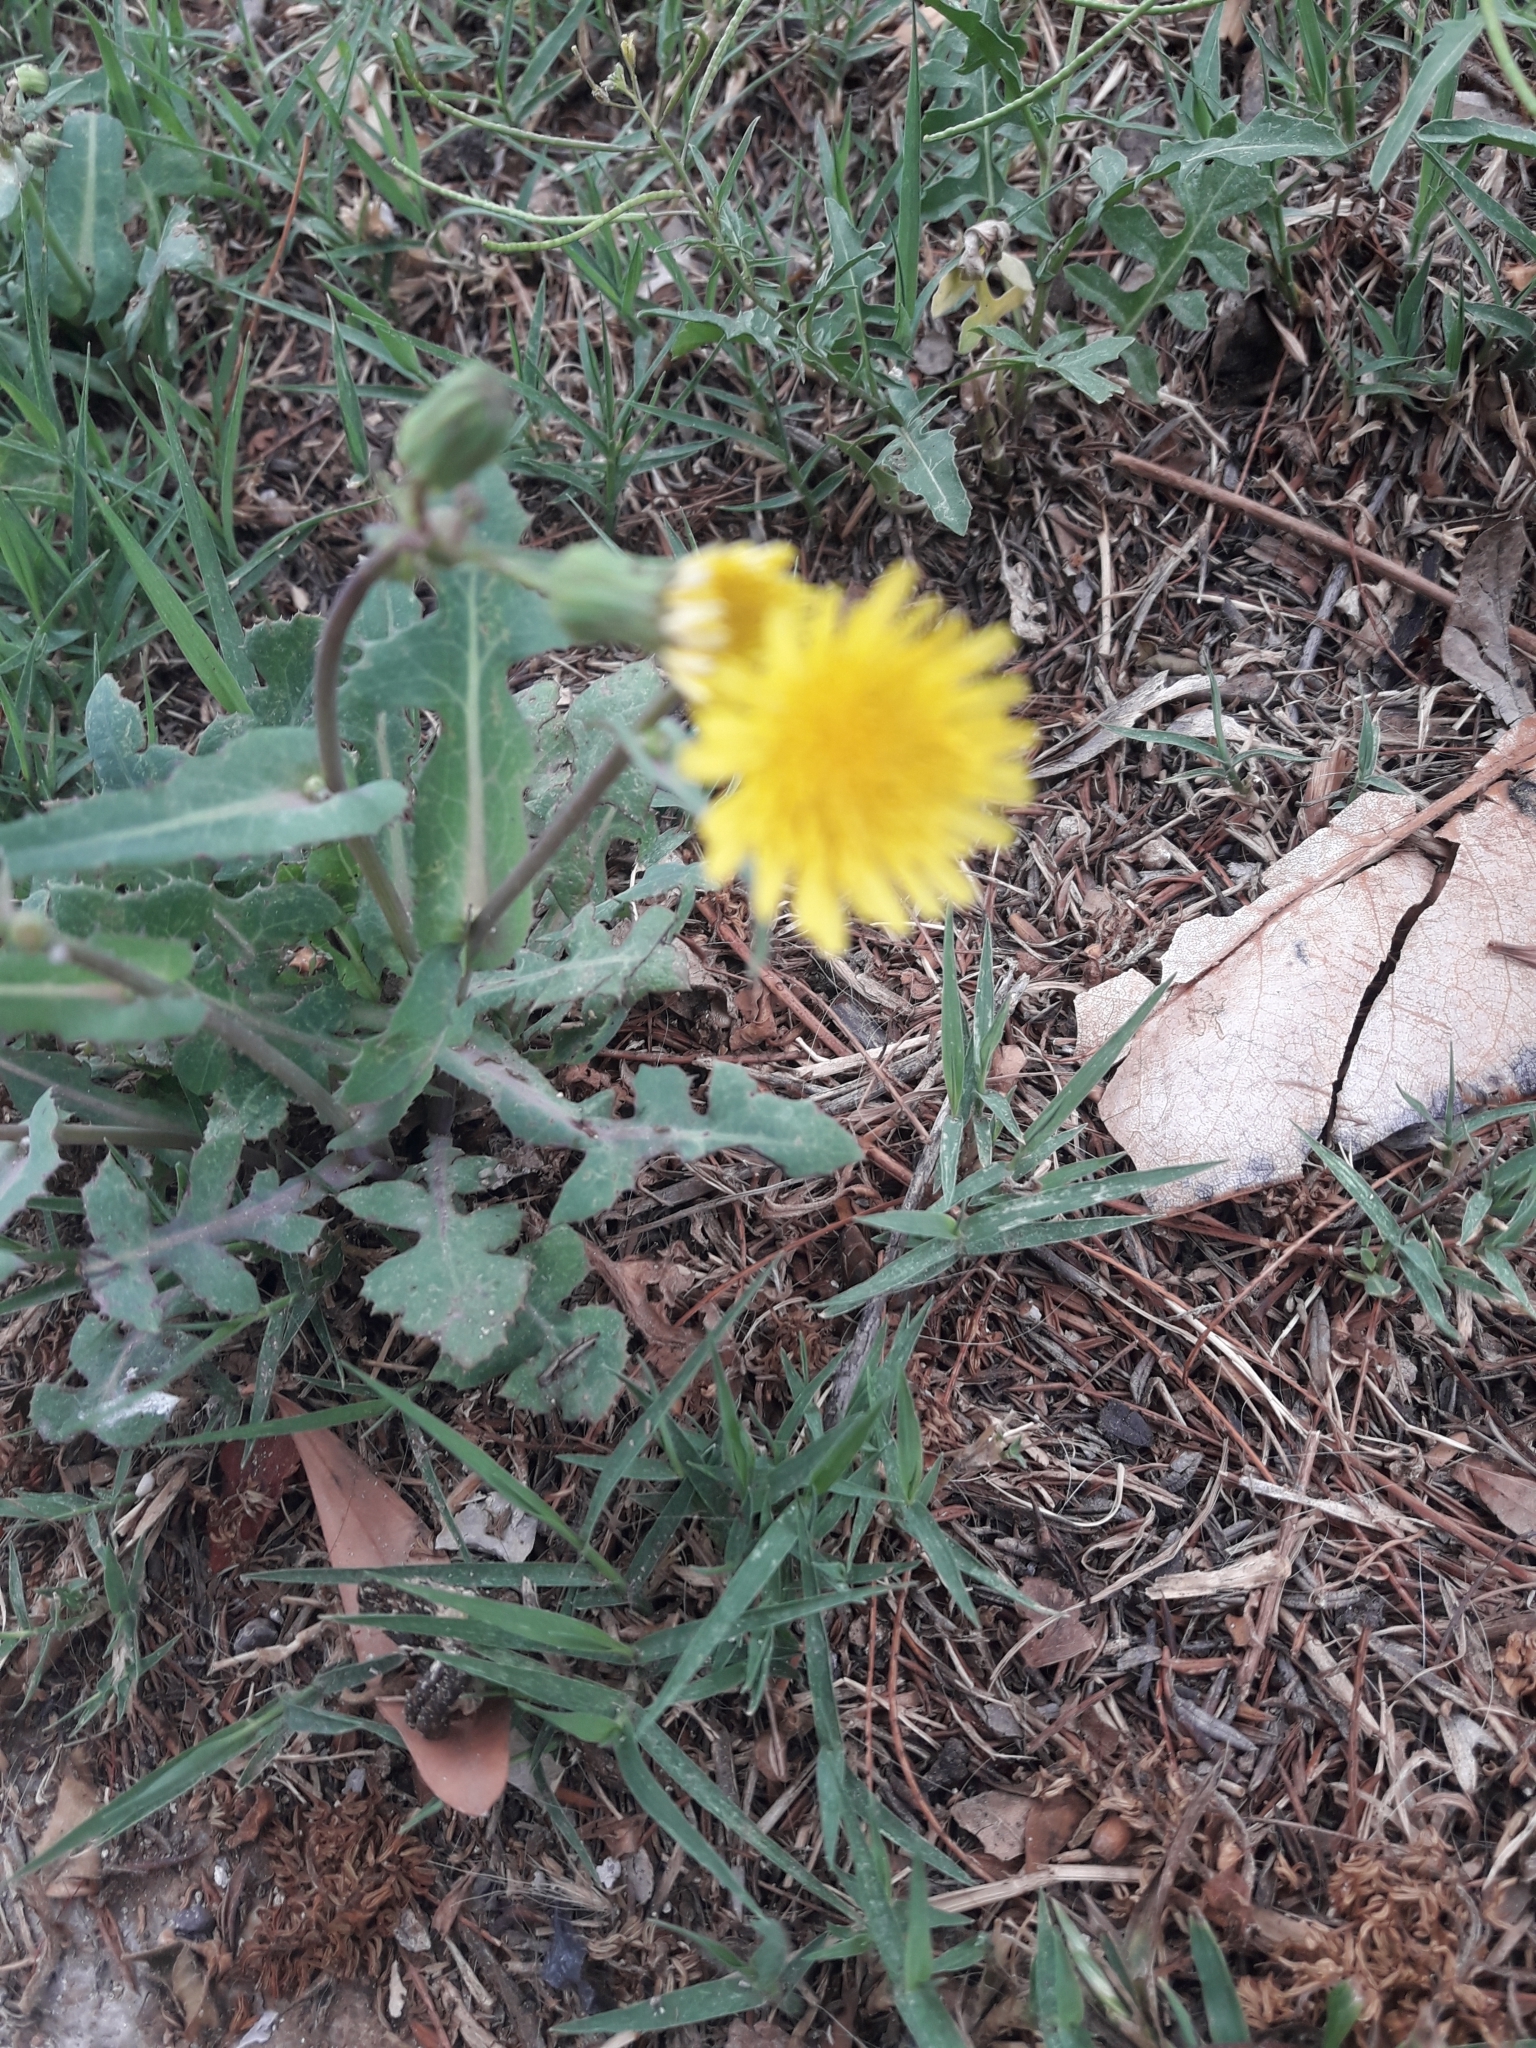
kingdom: Plantae
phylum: Tracheophyta
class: Magnoliopsida
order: Asterales
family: Asteraceae
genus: Sonchus
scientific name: Sonchus oleraceus
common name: Common sowthistle
